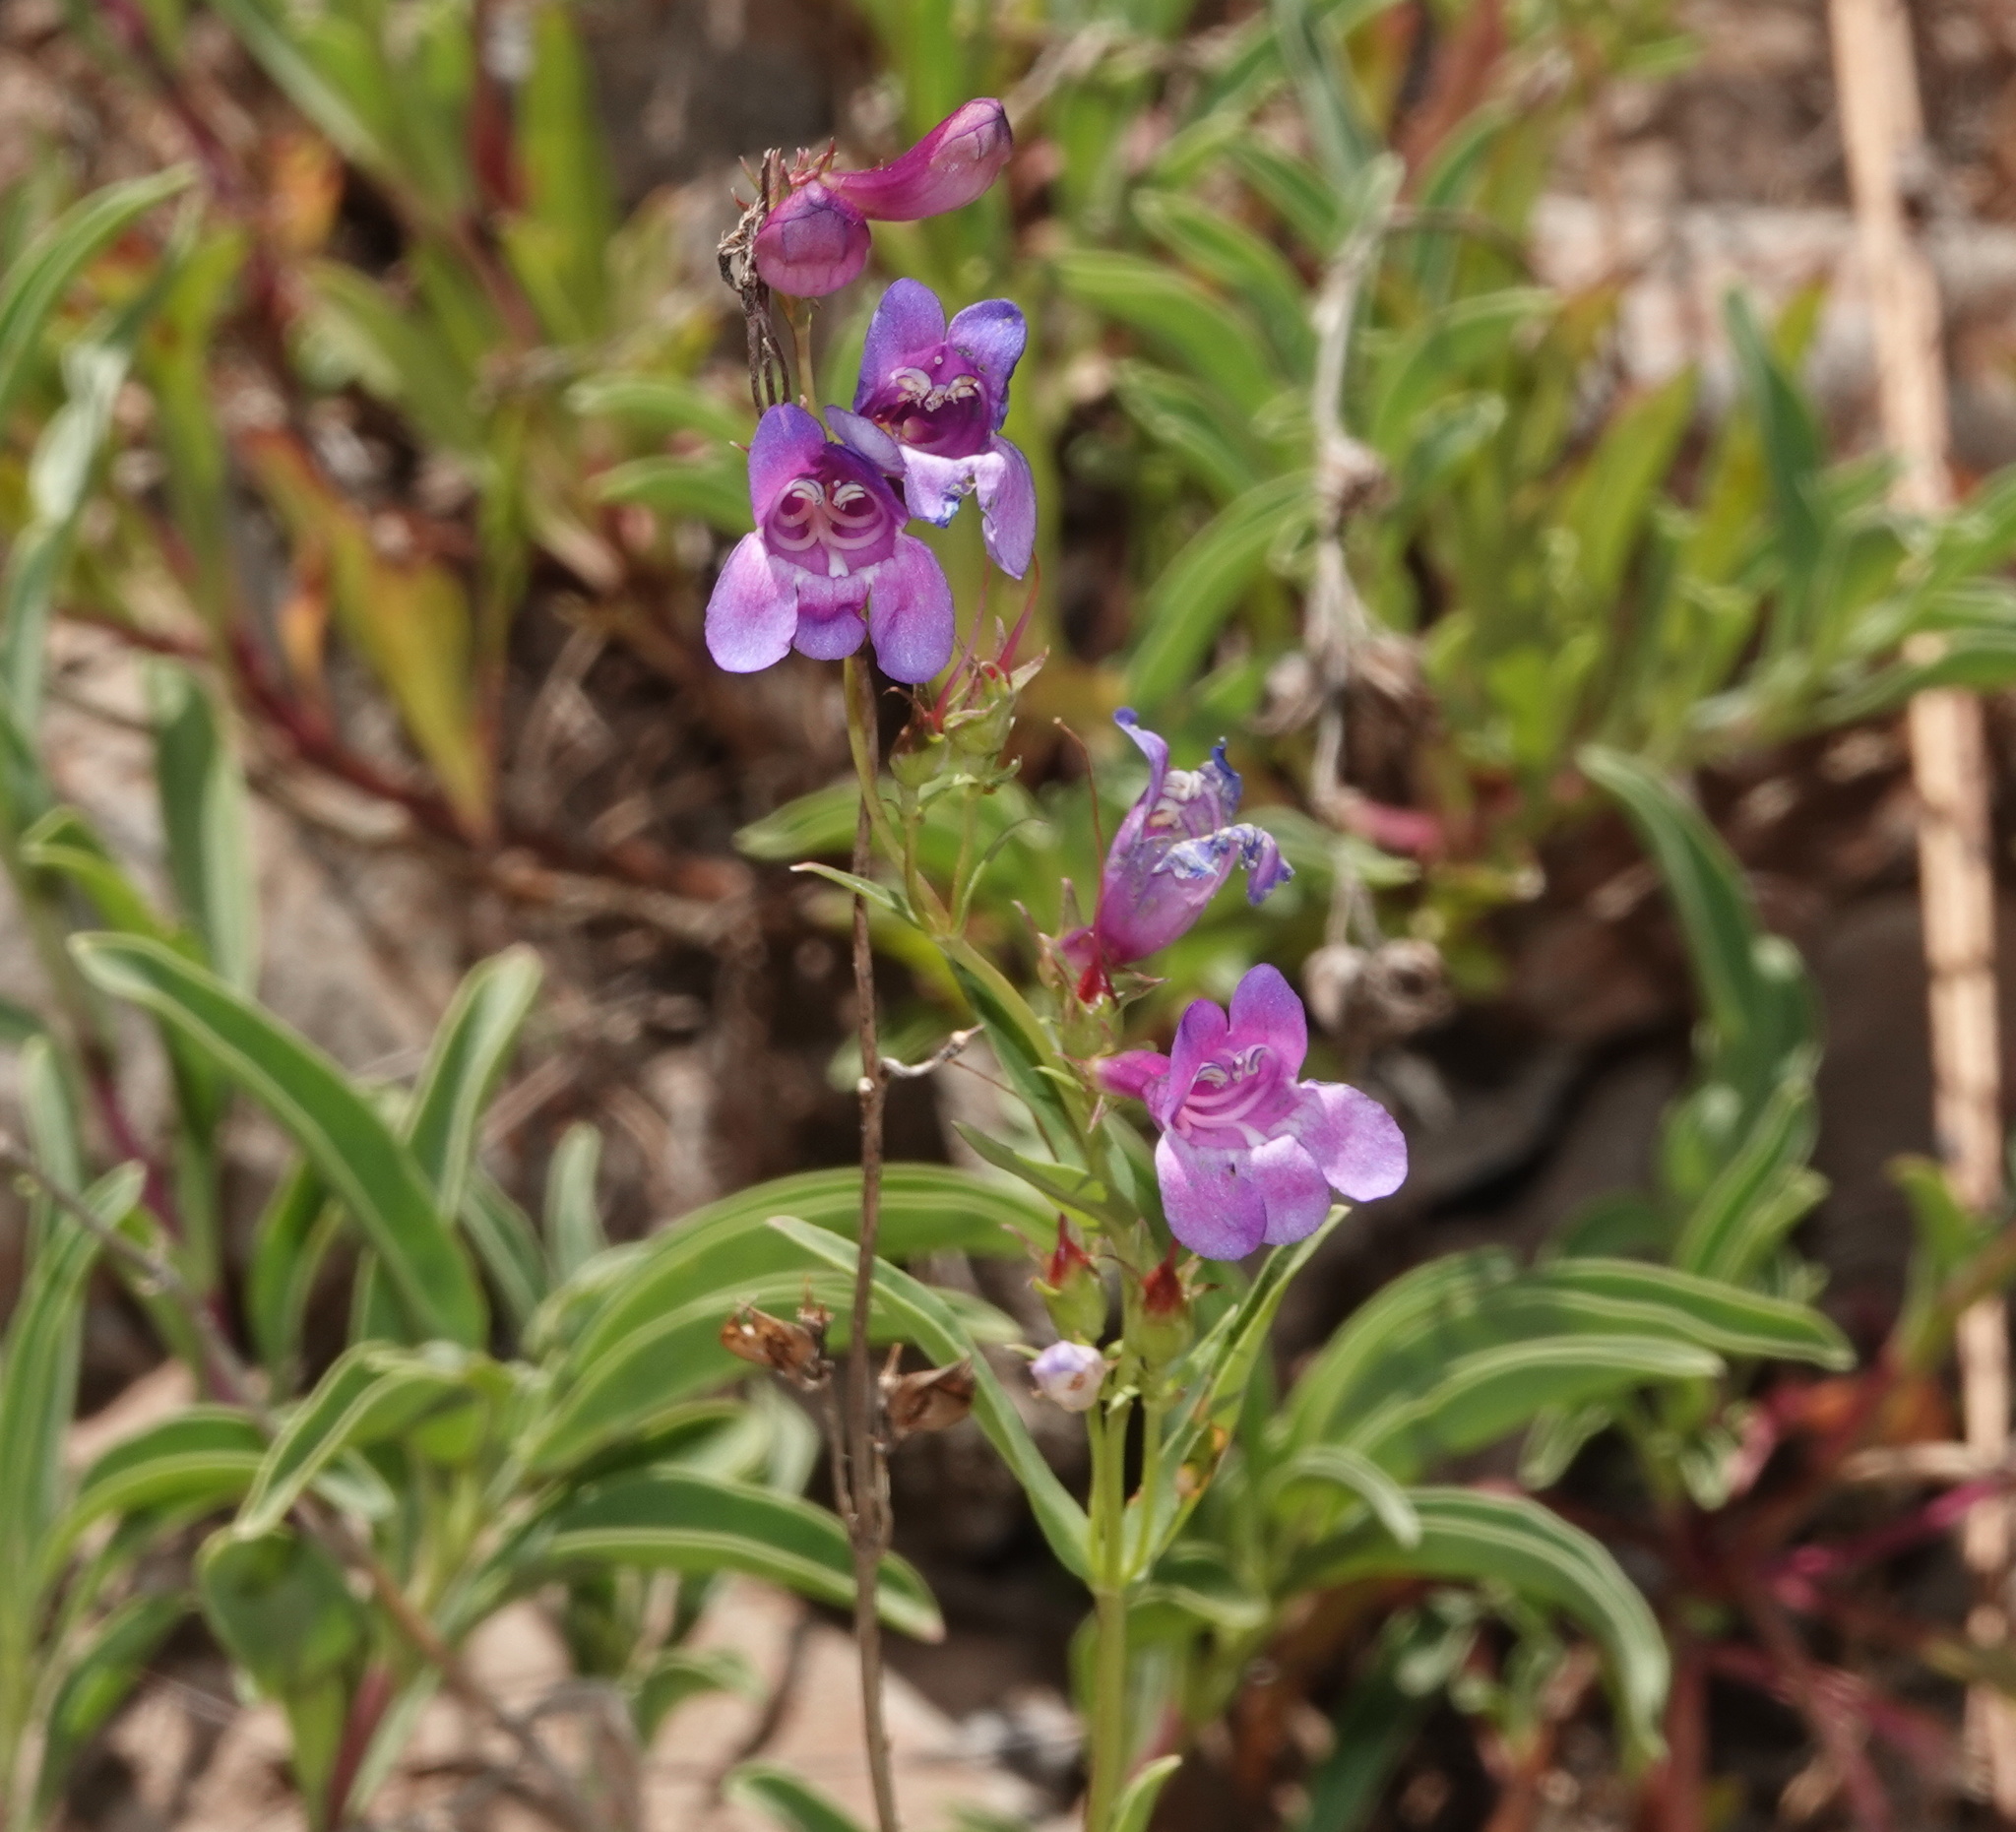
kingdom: Plantae
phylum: Tracheophyta
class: Magnoliopsida
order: Lamiales
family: Plantaginaceae
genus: Penstemon
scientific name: Penstemon leonardii
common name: Leonard's penstemon
